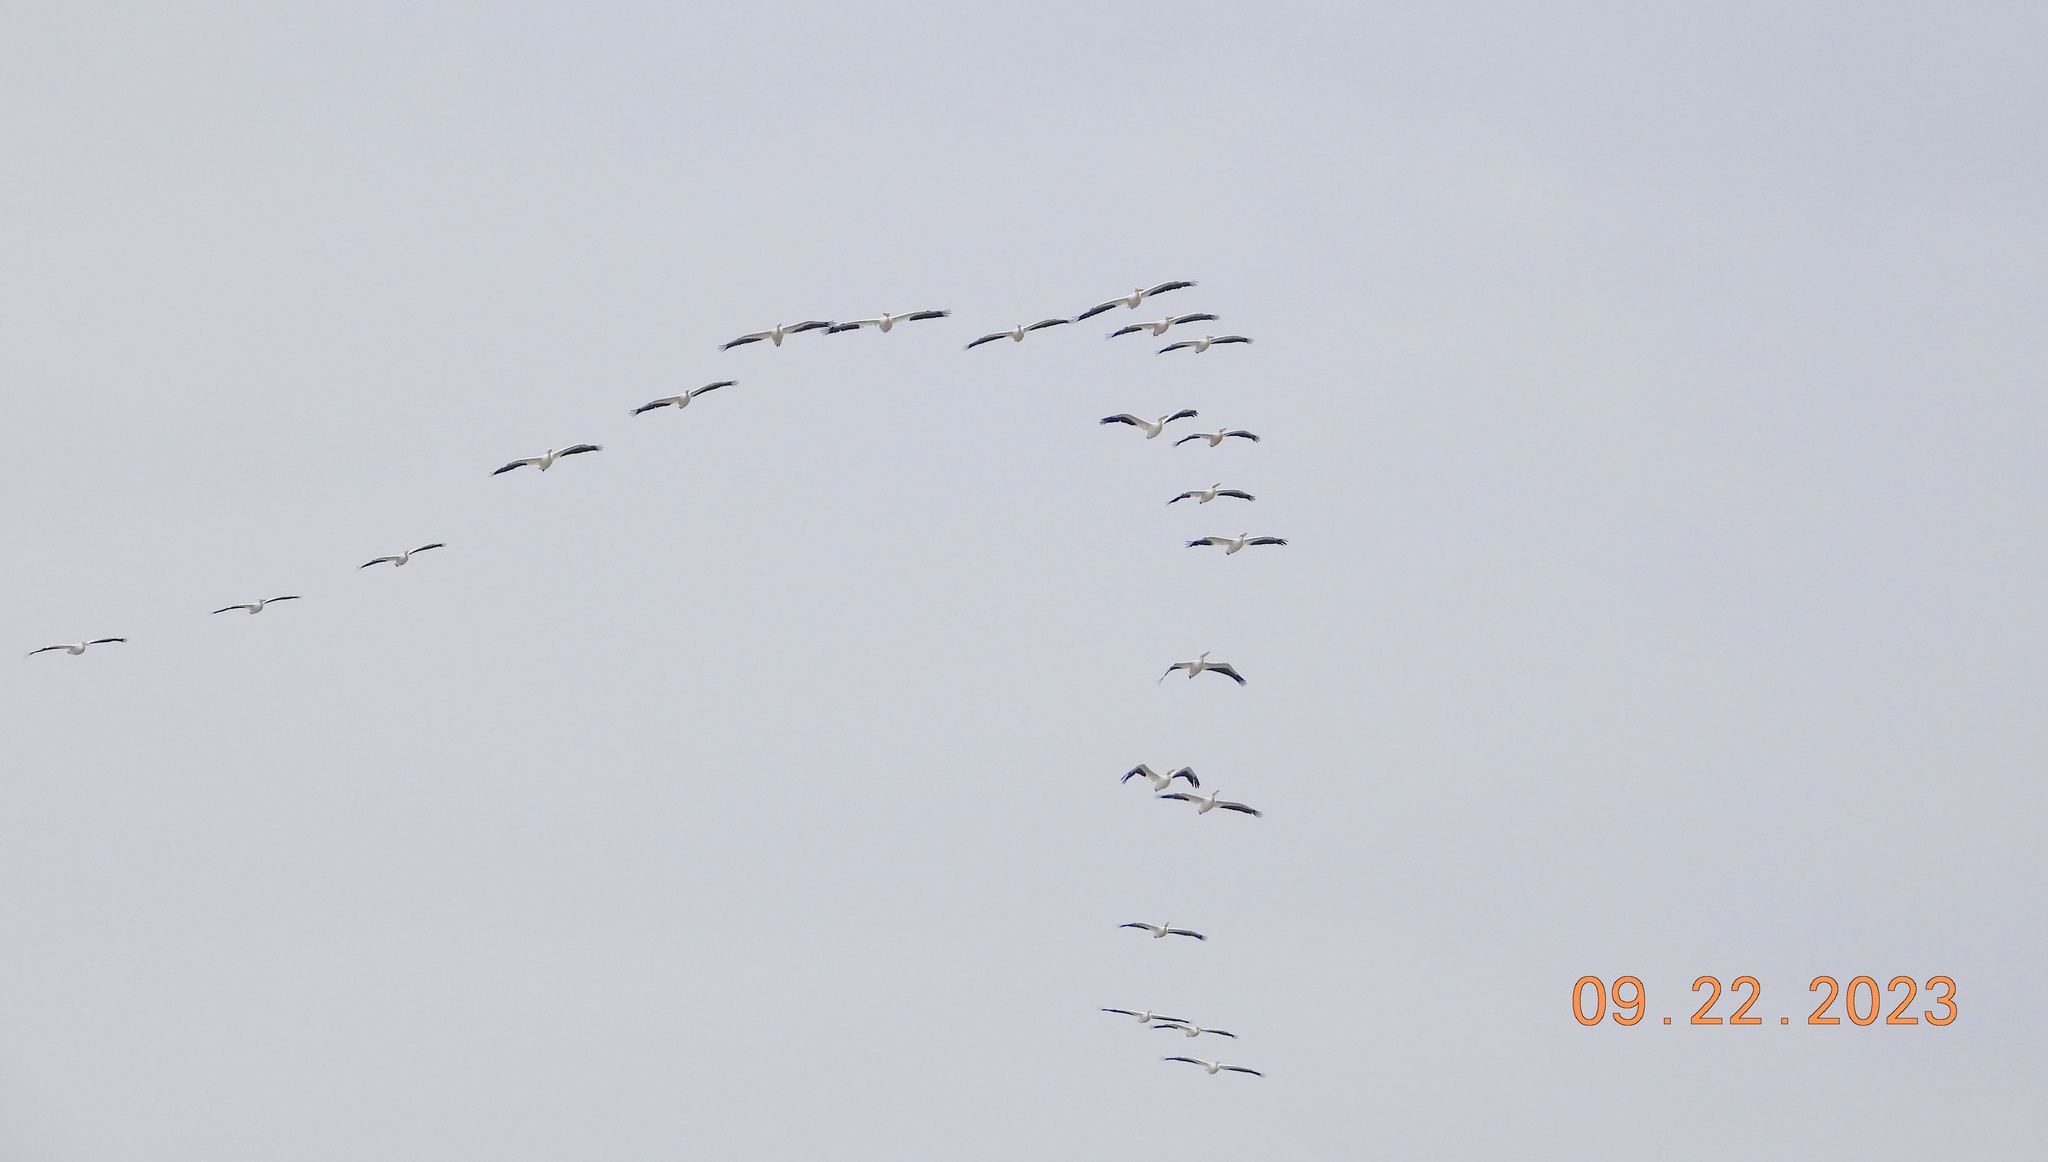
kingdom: Animalia
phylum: Chordata
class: Aves
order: Pelecaniformes
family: Pelecanidae
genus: Pelecanus
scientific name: Pelecanus erythrorhynchos
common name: American white pelican
